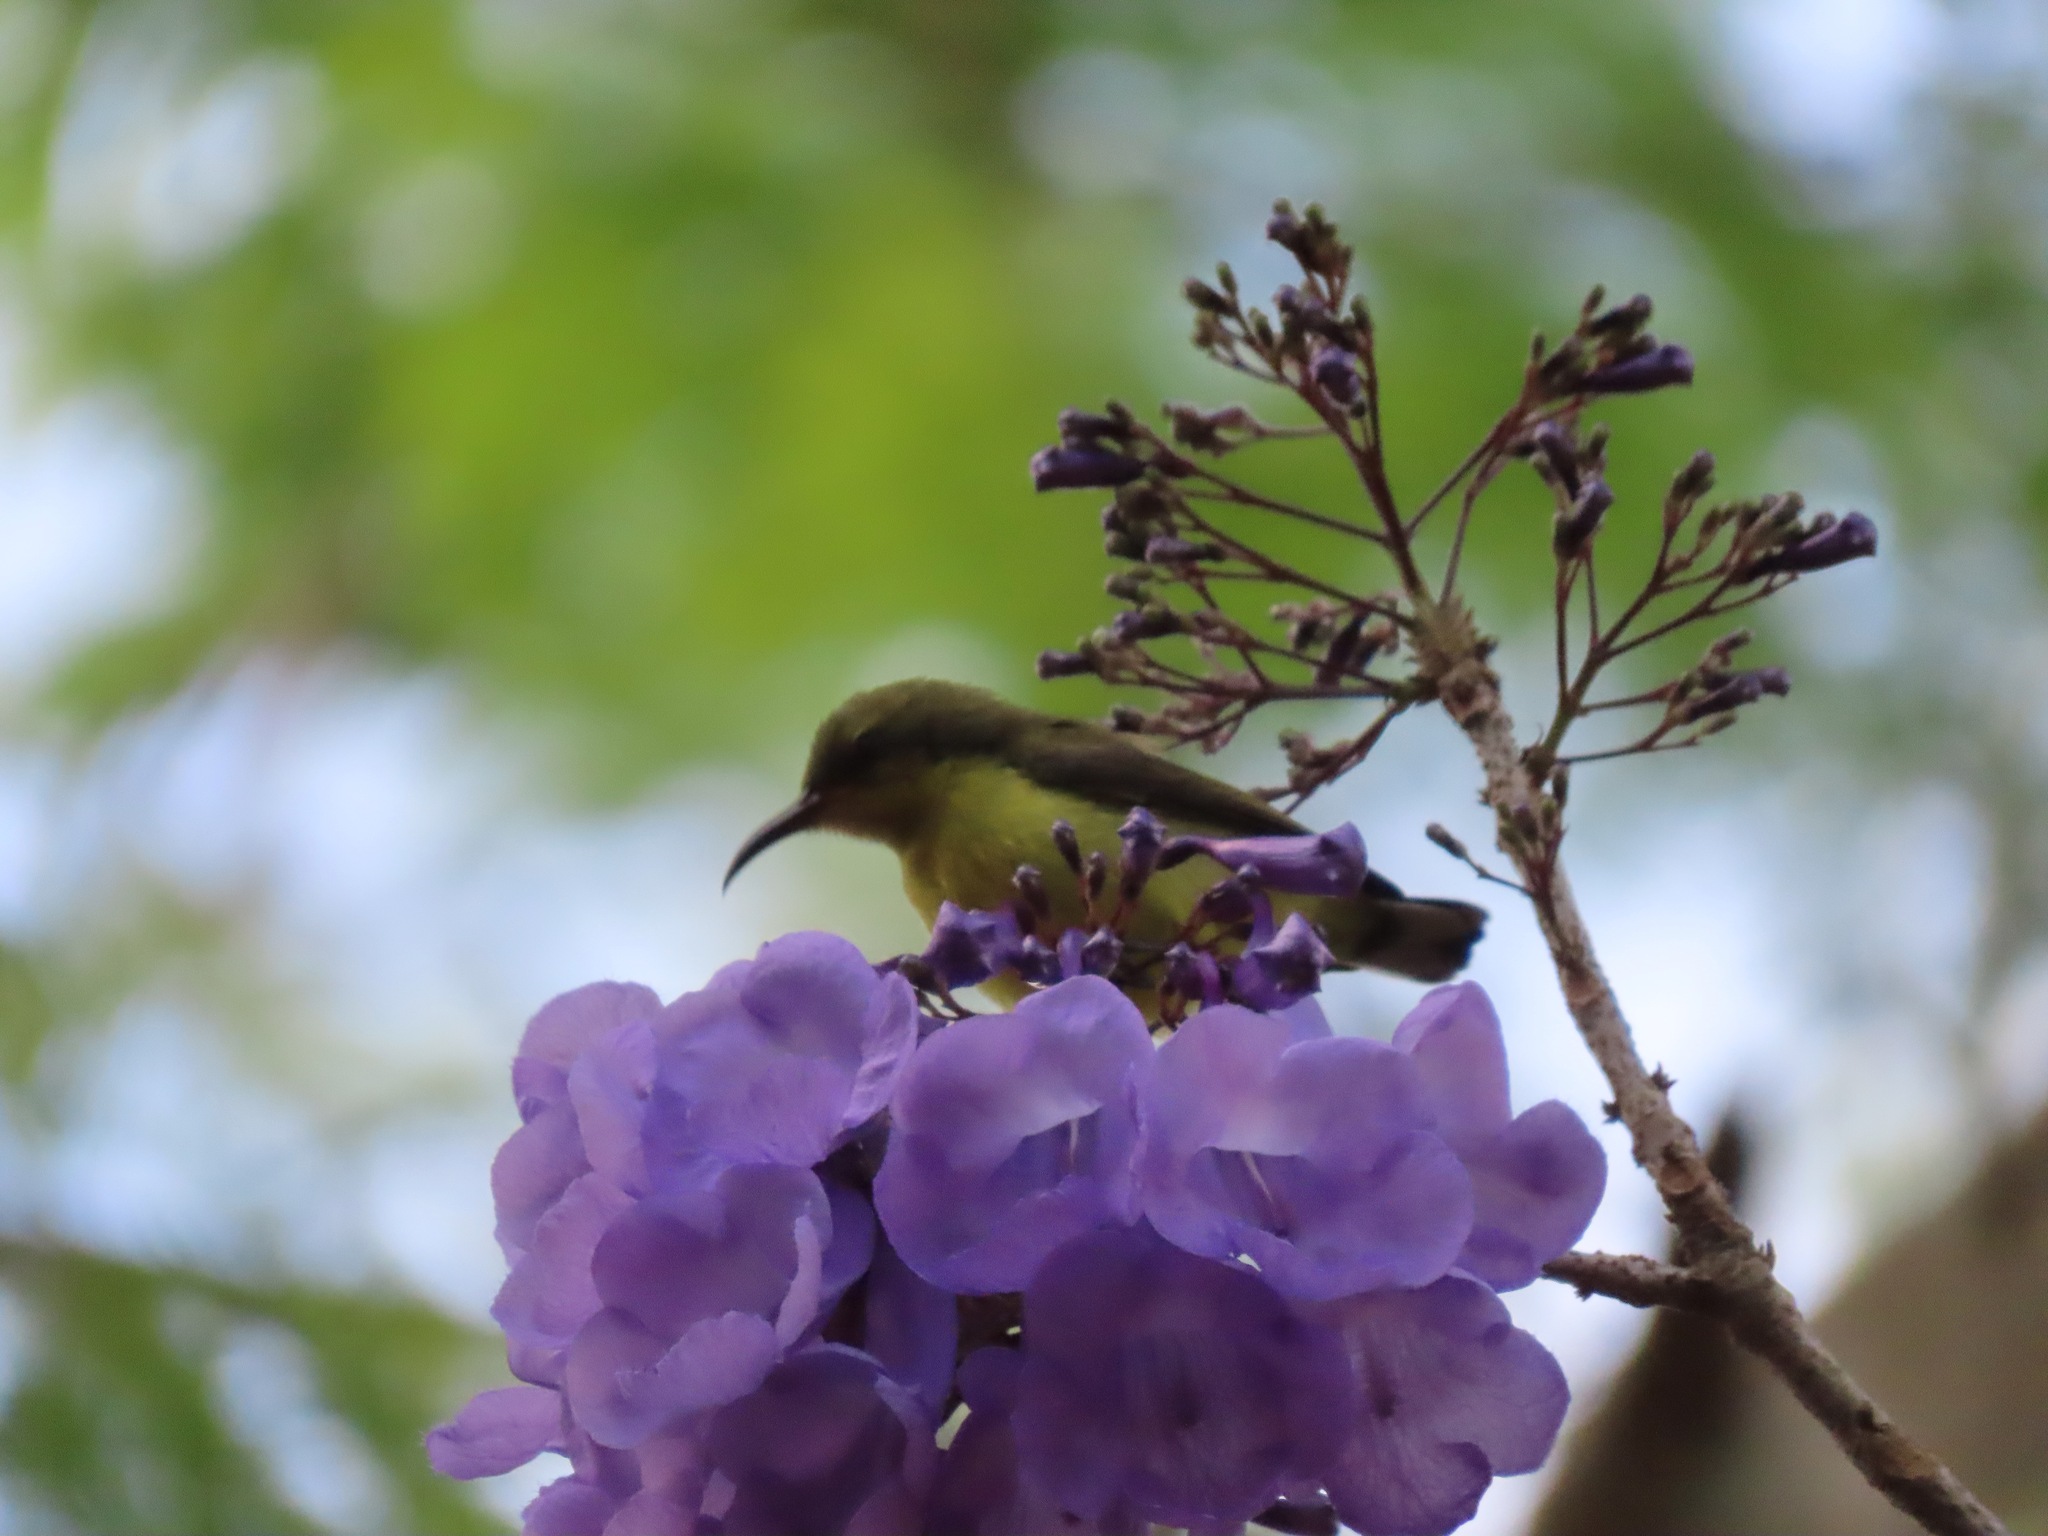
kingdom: Animalia
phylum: Chordata
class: Aves
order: Passeriformes
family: Nectariniidae
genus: Cinnyris
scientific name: Cinnyris
